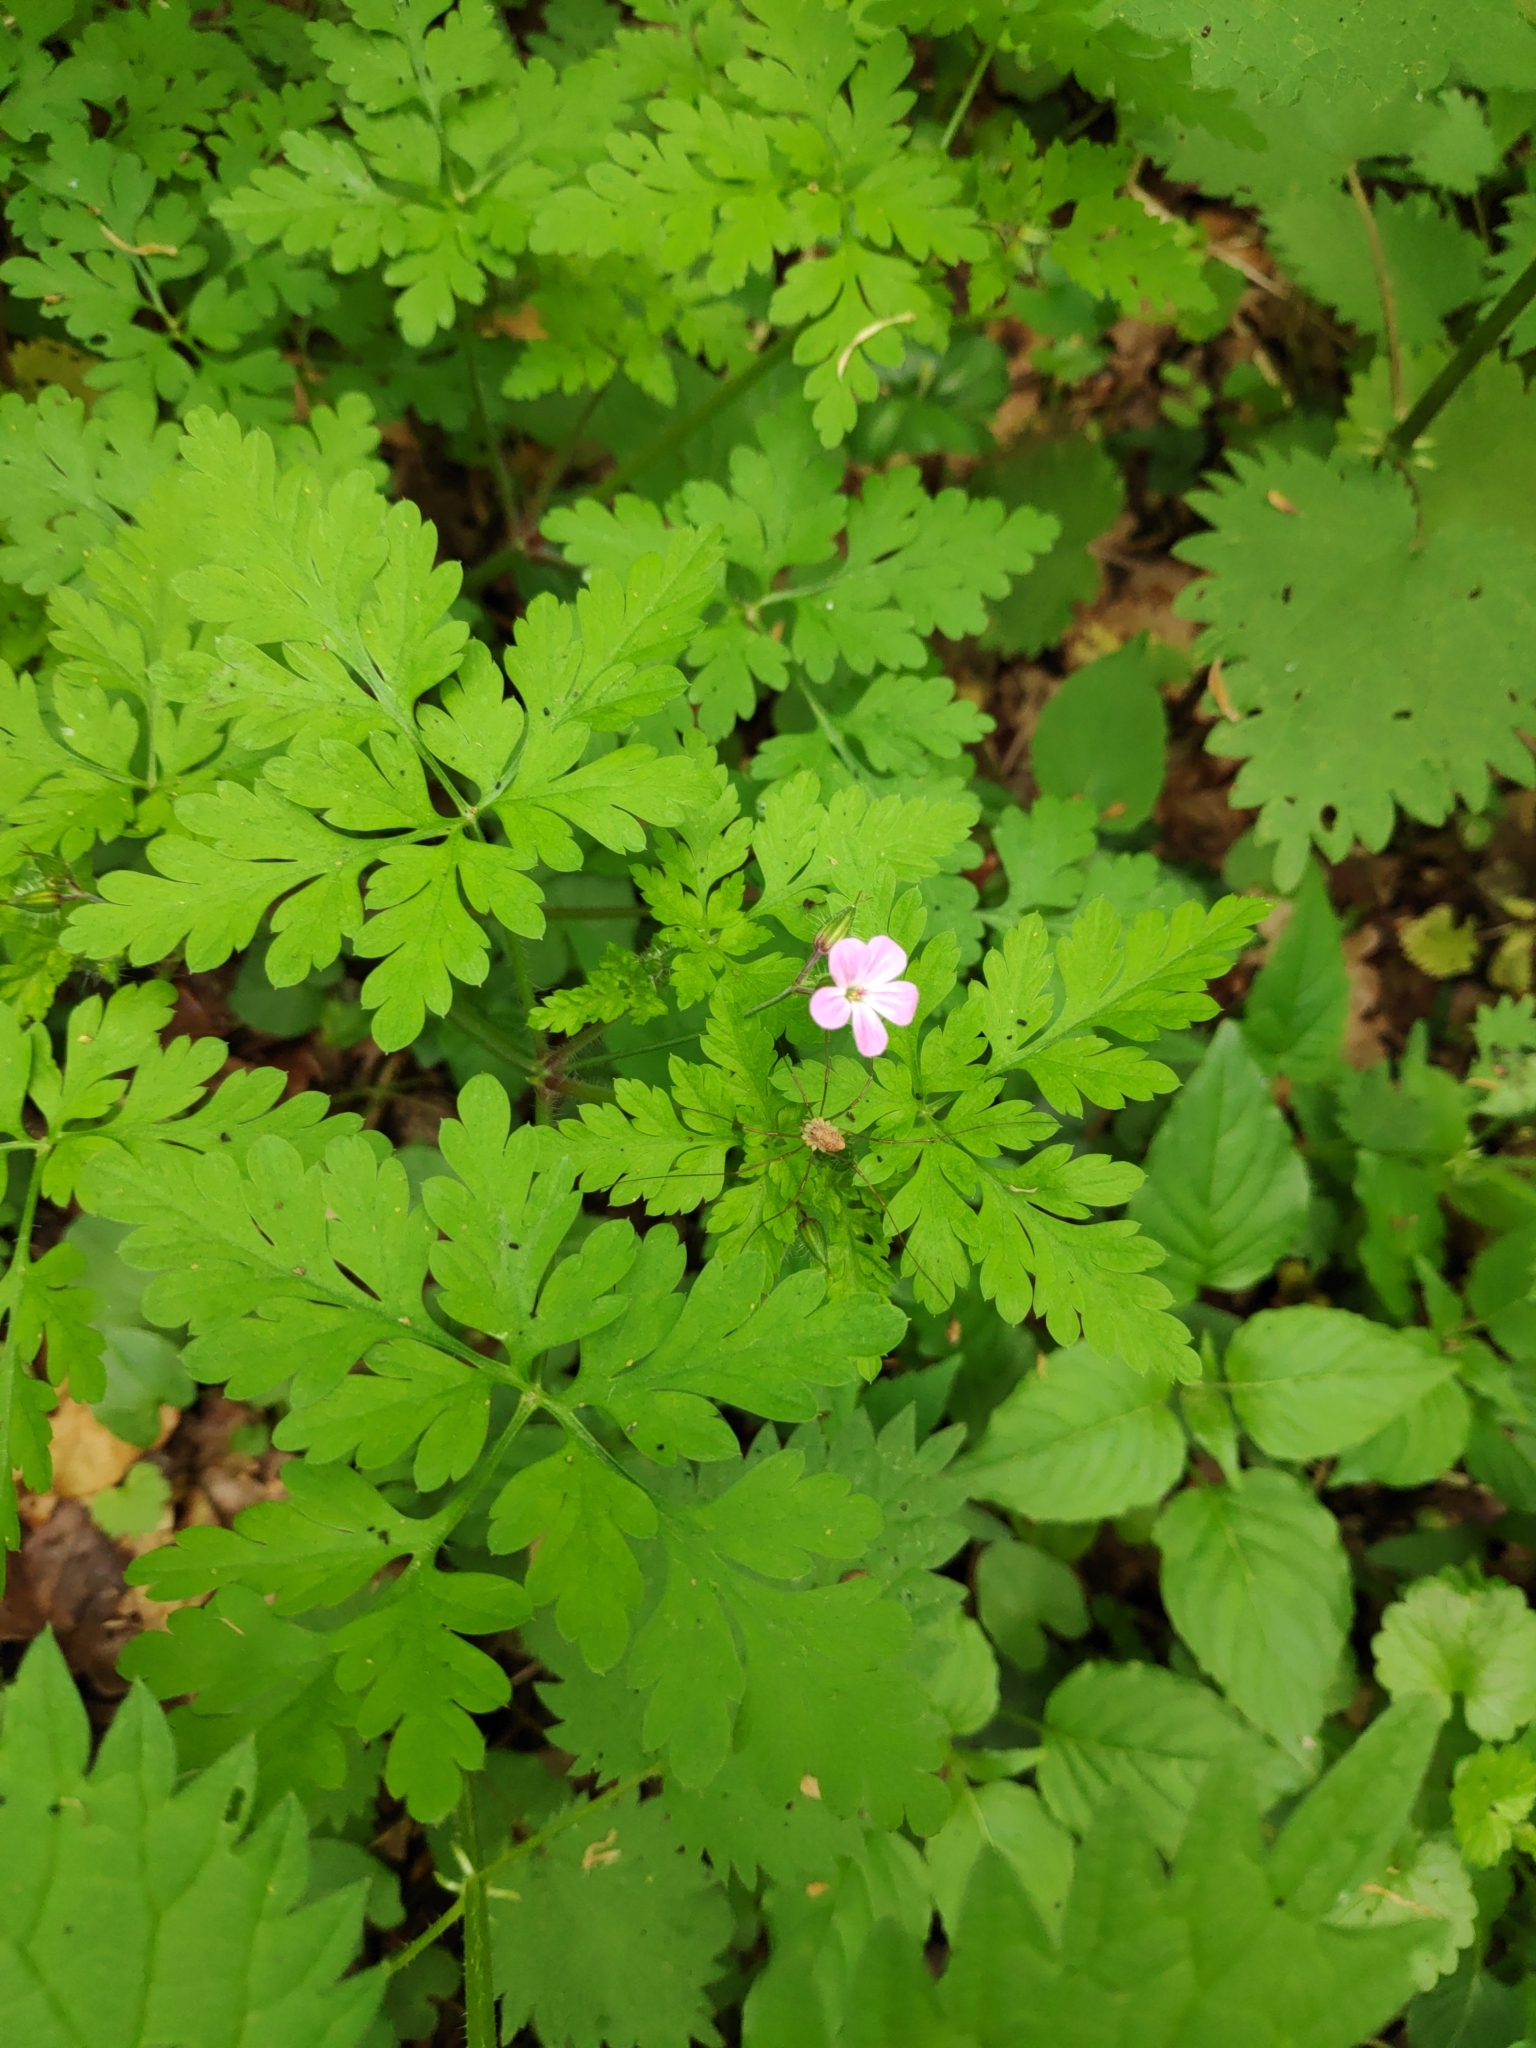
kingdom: Plantae
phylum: Tracheophyta
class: Magnoliopsida
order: Geraniales
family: Geraniaceae
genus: Geranium
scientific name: Geranium robertianum
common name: Herb-robert
